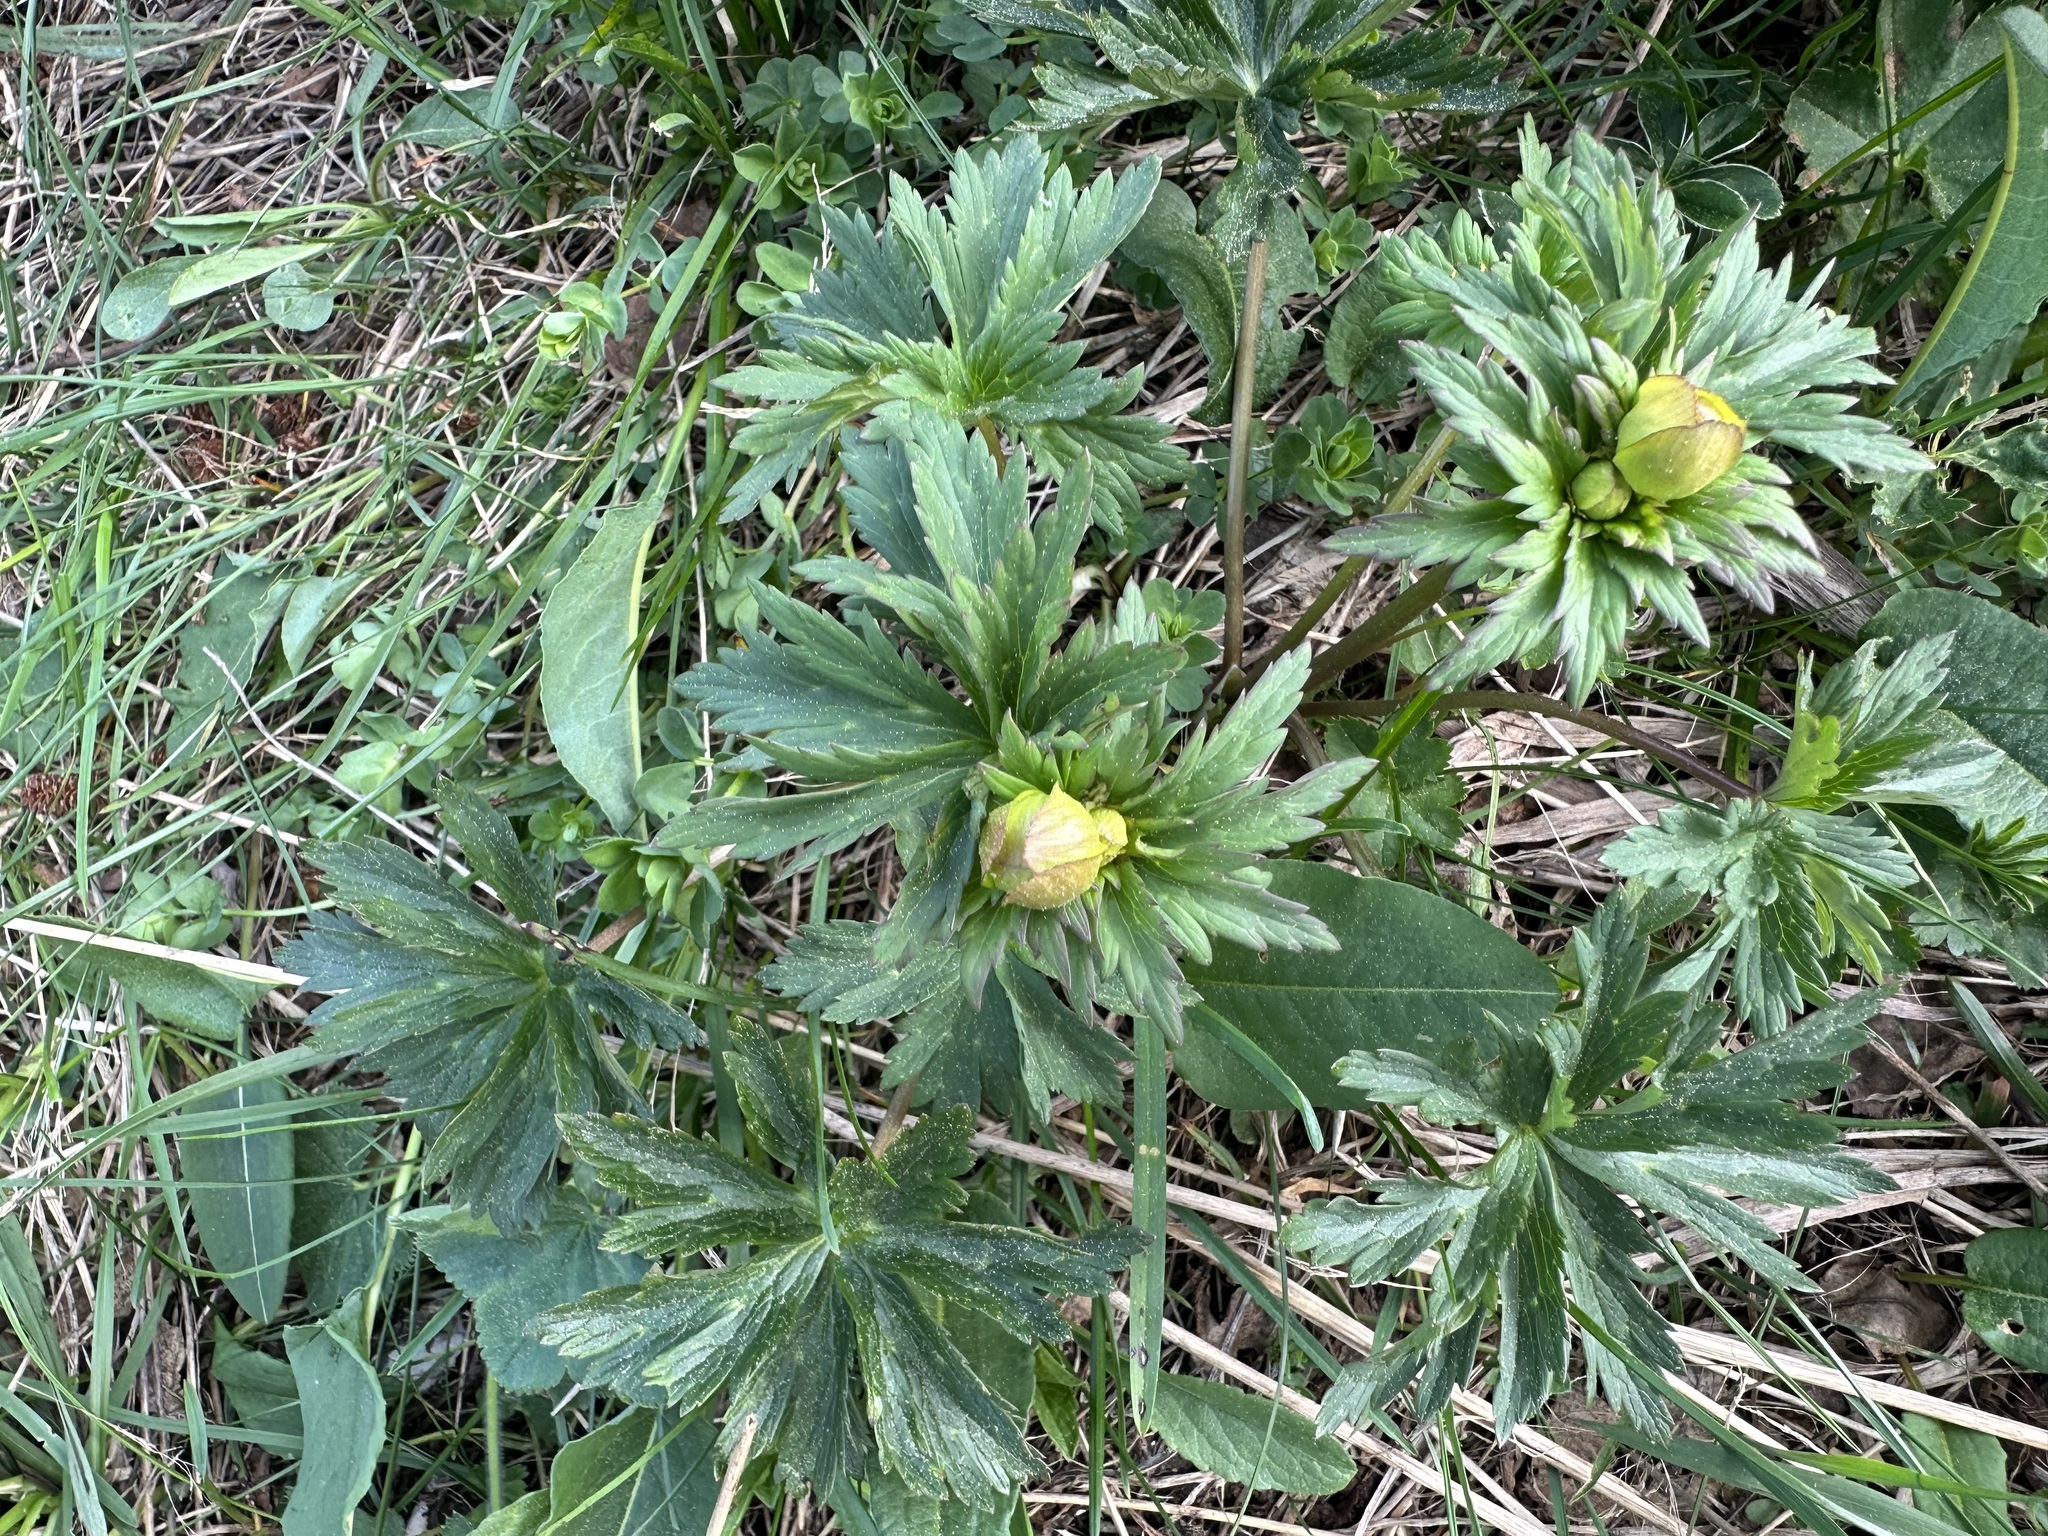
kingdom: Plantae
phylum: Tracheophyta
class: Magnoliopsida
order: Ranunculales
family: Ranunculaceae
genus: Trollius
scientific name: Trollius europaeus
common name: European globeflower
